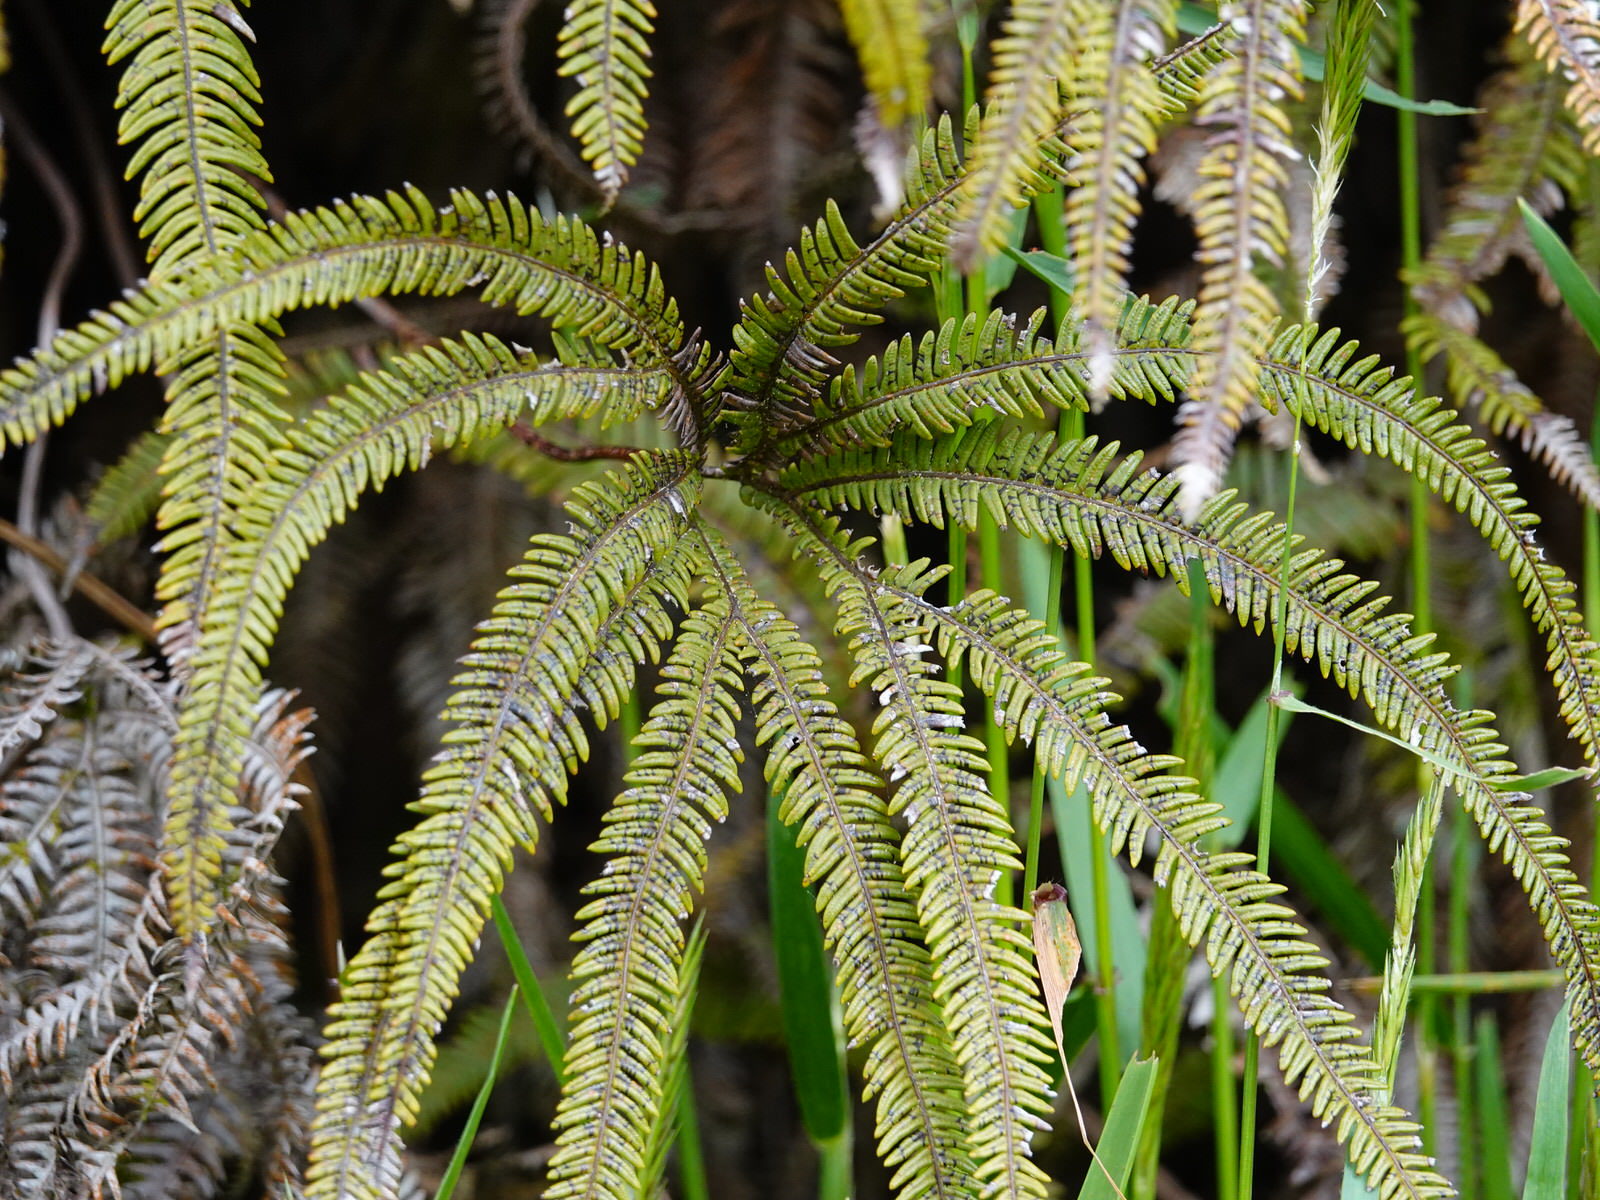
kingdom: Plantae
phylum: Tracheophyta
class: Polypodiopsida
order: Gleicheniales
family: Gleicheniaceae
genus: Sticherus
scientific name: Sticherus cunninghamii
